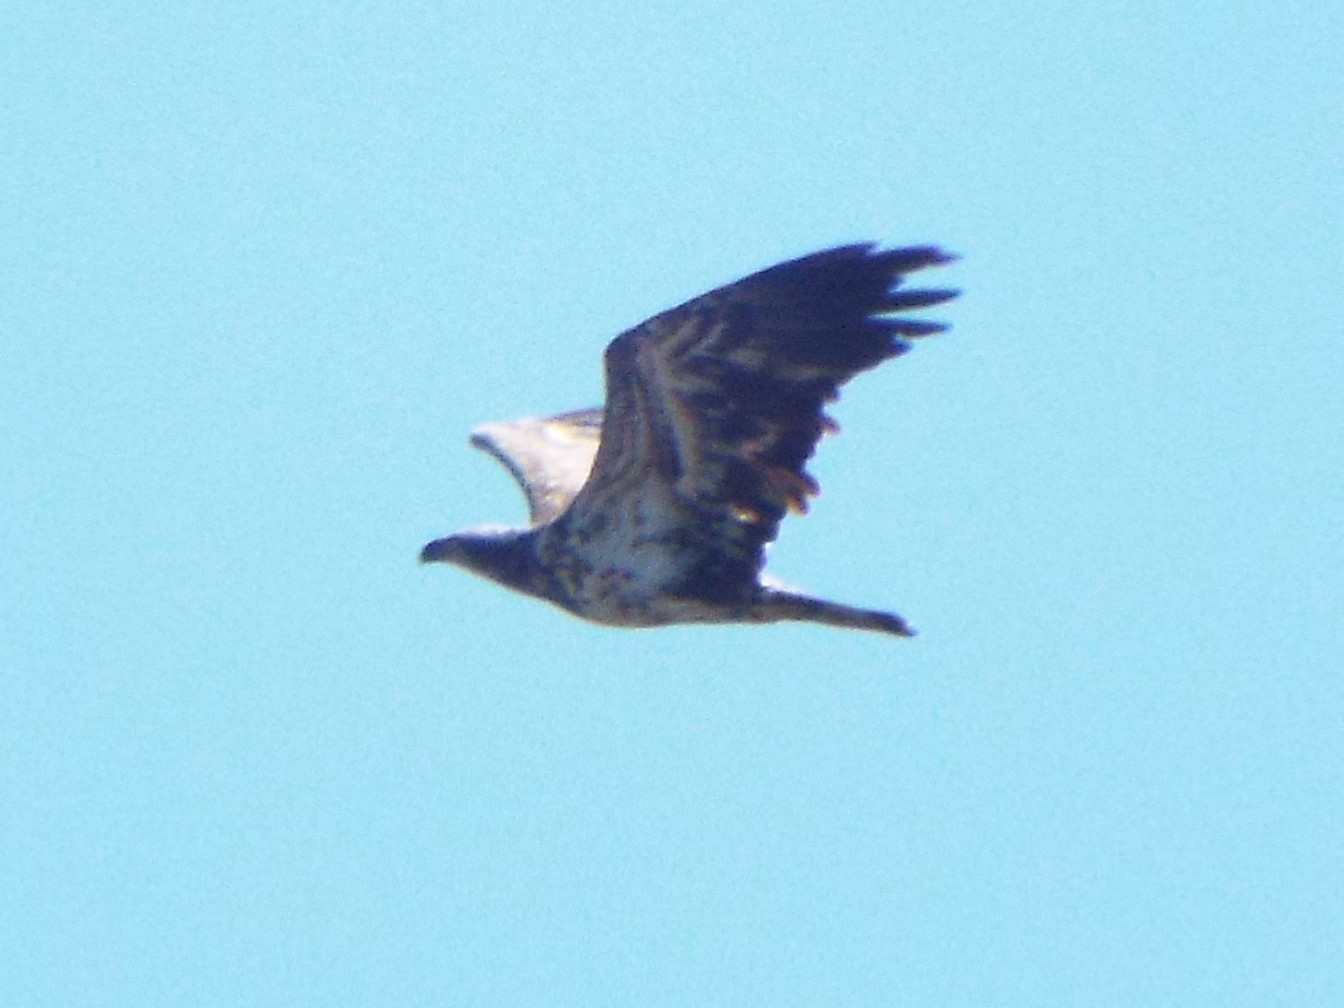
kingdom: Animalia
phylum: Chordata
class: Aves
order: Accipitriformes
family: Accipitridae
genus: Haliaeetus
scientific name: Haliaeetus leucocephalus
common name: Bald eagle
